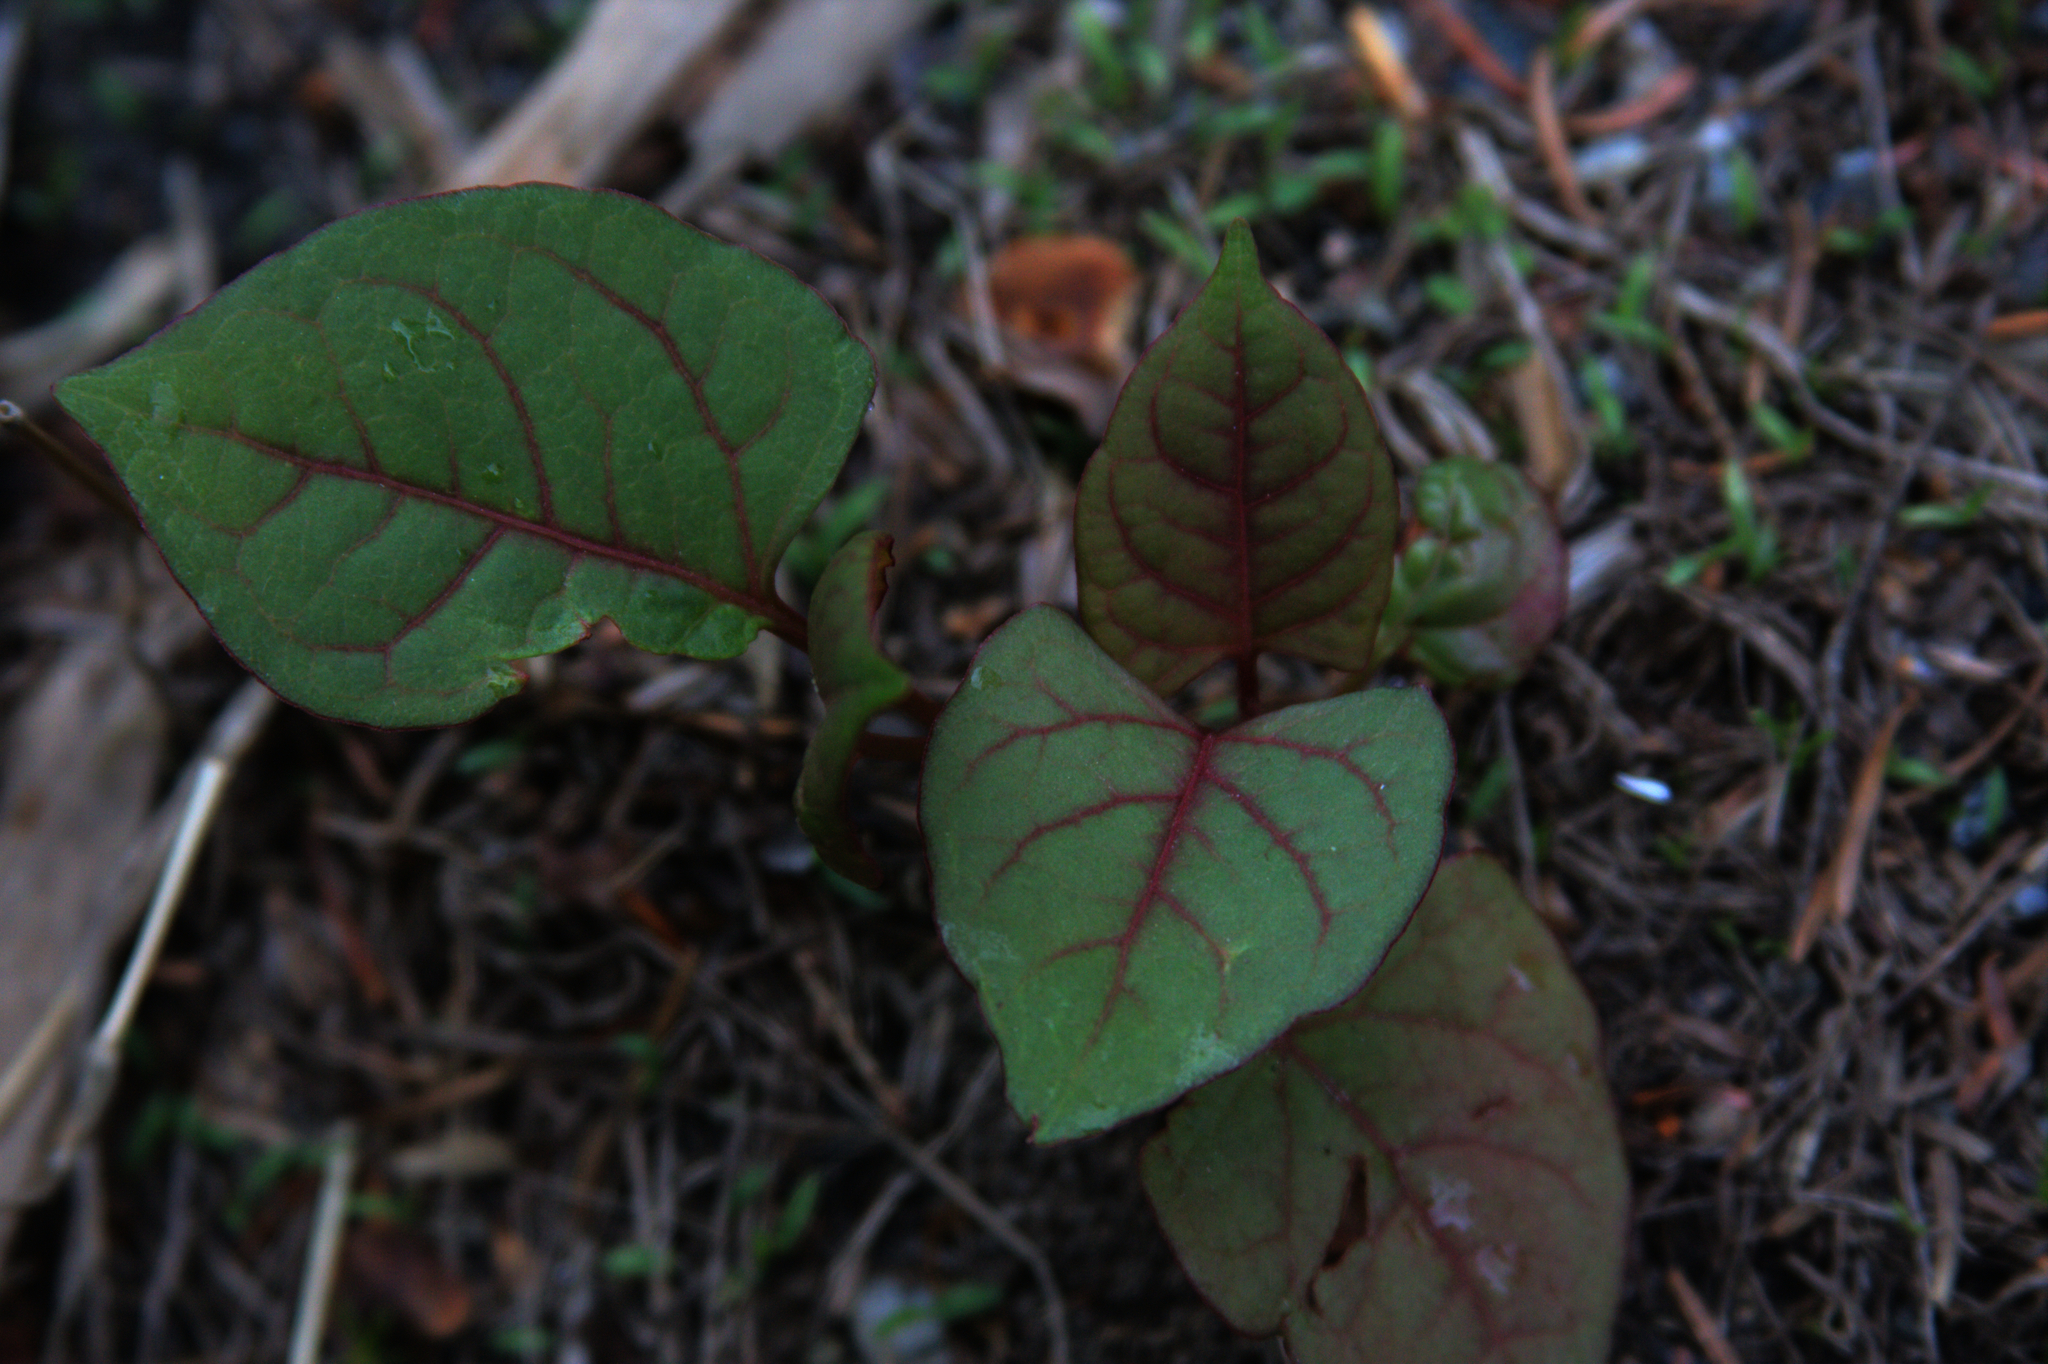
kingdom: Plantae
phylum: Tracheophyta
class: Magnoliopsida
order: Caryophyllales
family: Polygonaceae
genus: Reynoutria
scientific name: Reynoutria japonica
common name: Japanese knotweed
